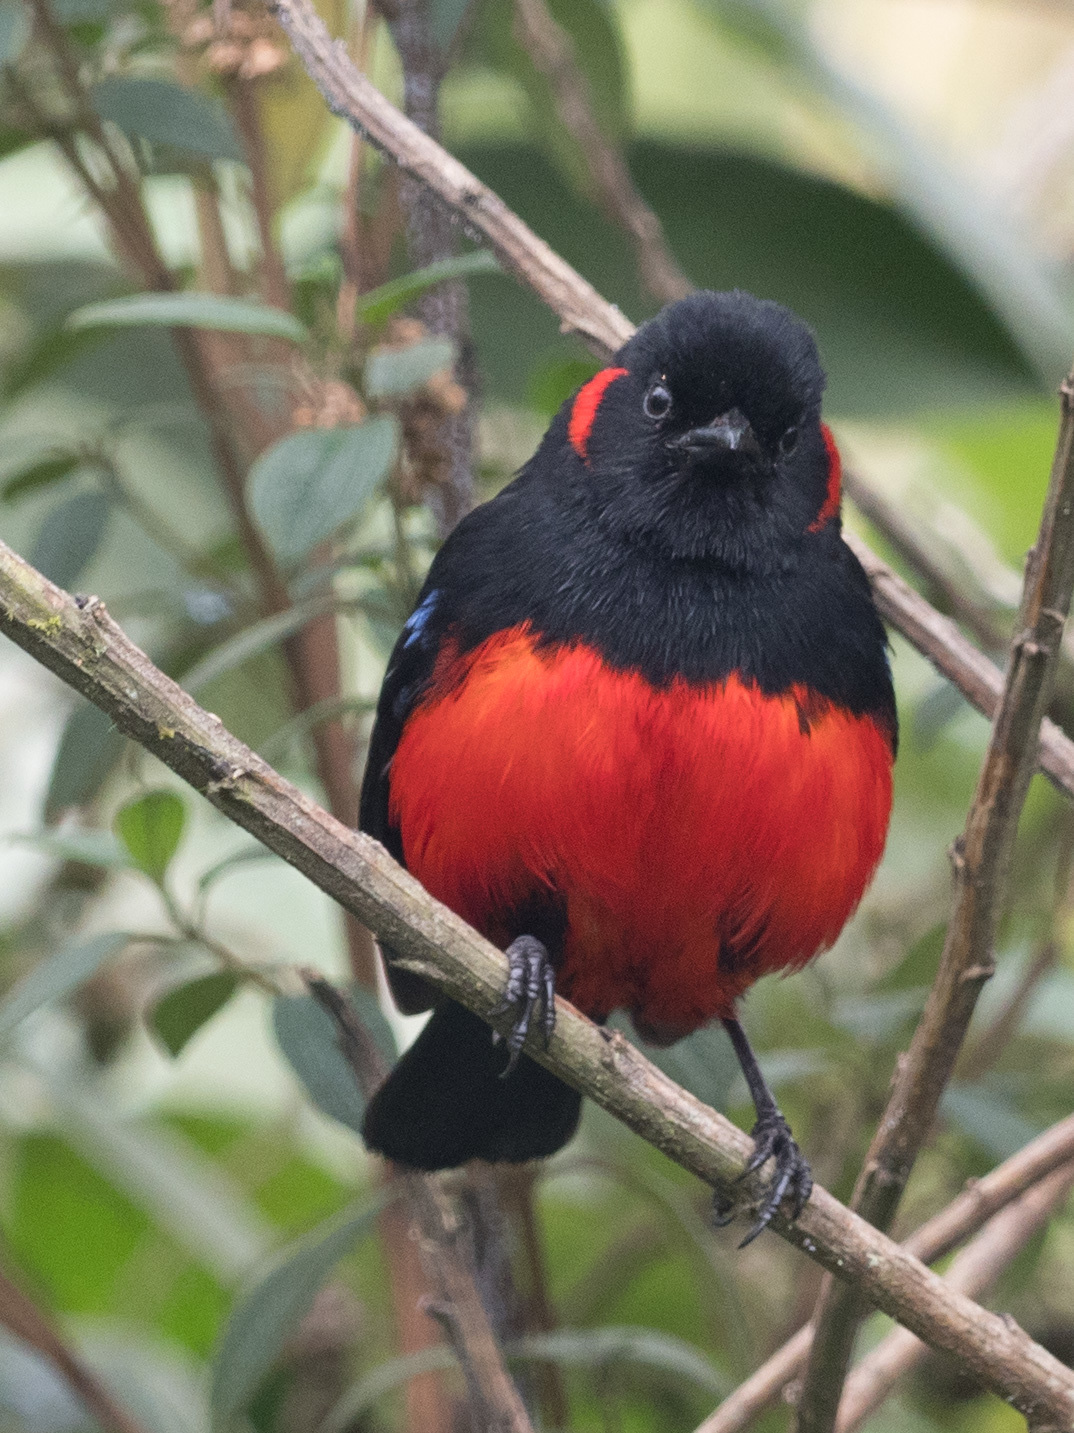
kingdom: Animalia
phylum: Chordata
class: Aves
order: Passeriformes
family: Thraupidae
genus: Anisognathus
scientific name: Anisognathus igniventris
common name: Scarlet-bellied mountain tanager
